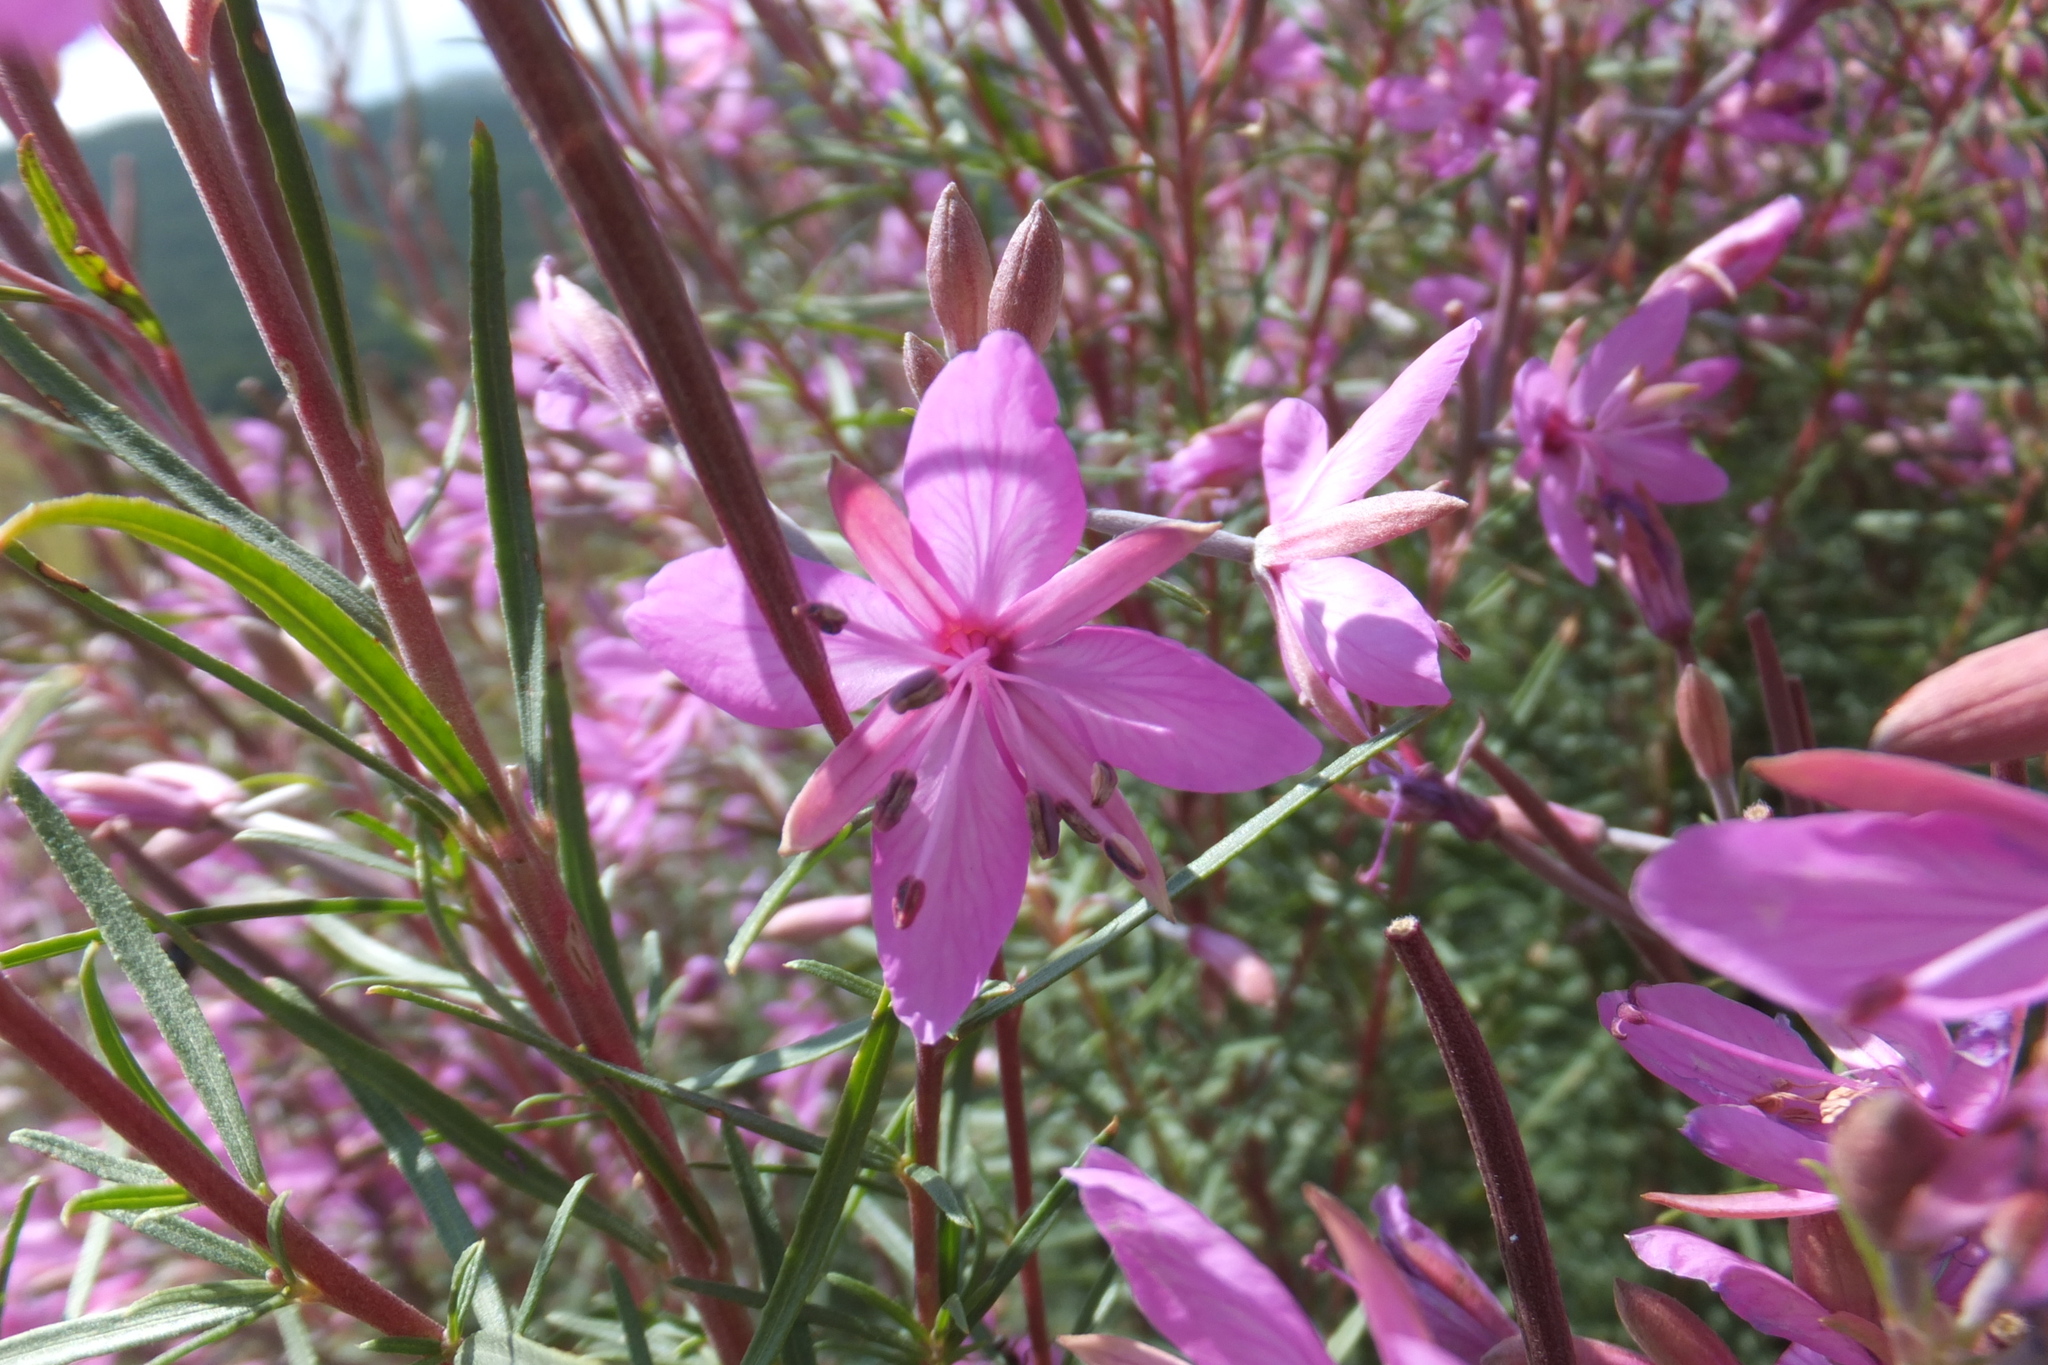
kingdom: Plantae
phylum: Tracheophyta
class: Magnoliopsida
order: Myrtales
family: Onagraceae
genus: Chamaenerion
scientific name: Chamaenerion dodonaei
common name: Rosemary-leaved willowherb
